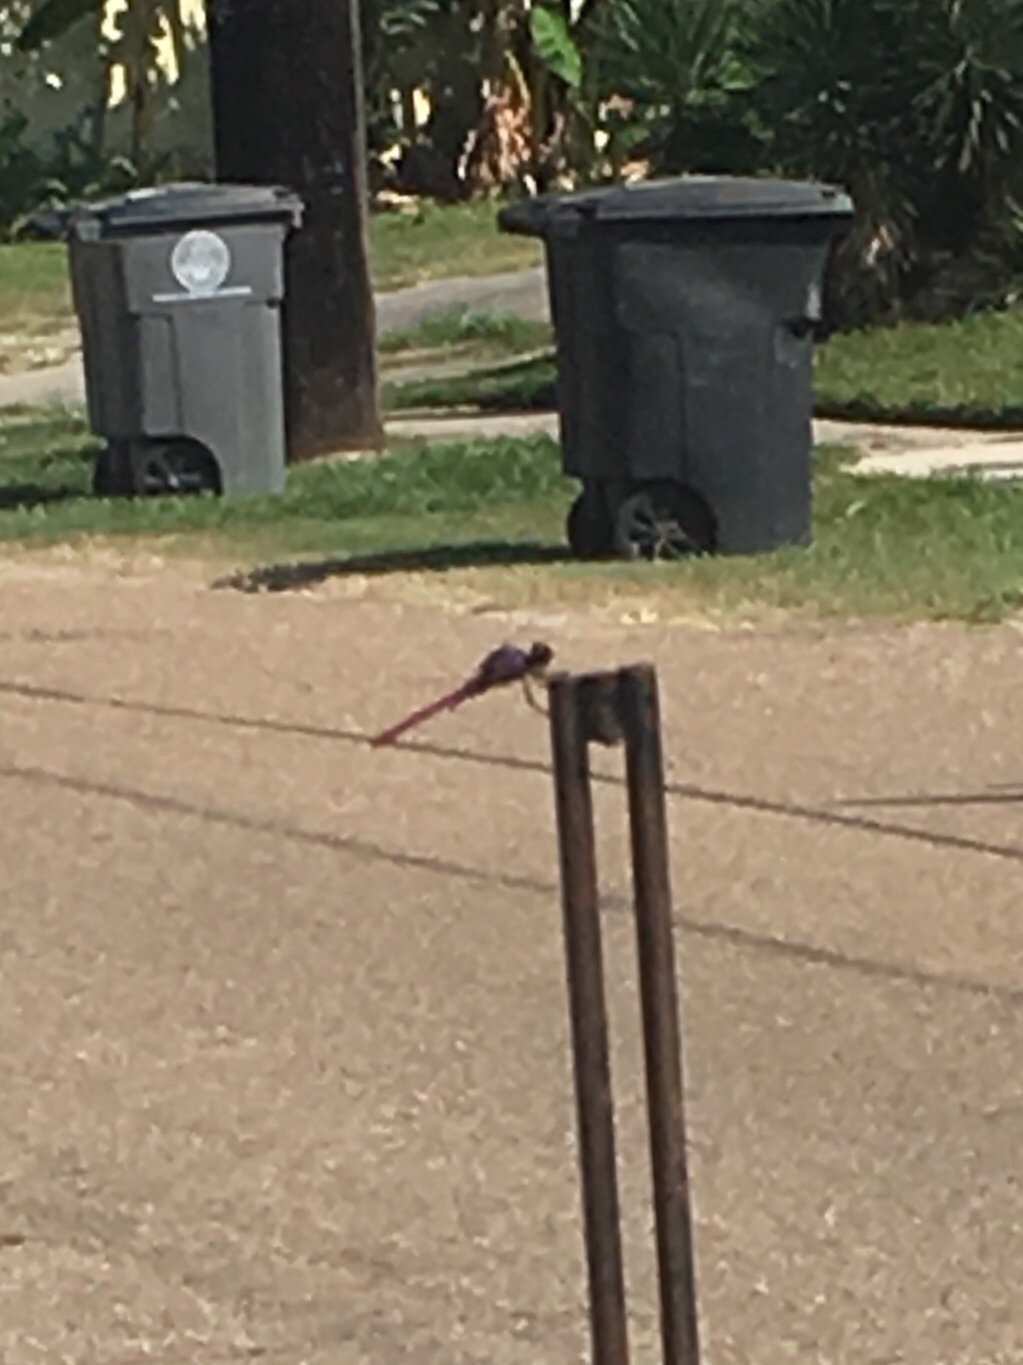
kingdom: Animalia
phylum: Arthropoda
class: Insecta
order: Odonata
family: Libellulidae
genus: Orthemis
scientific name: Orthemis ferruginea
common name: Roseate skimmer
